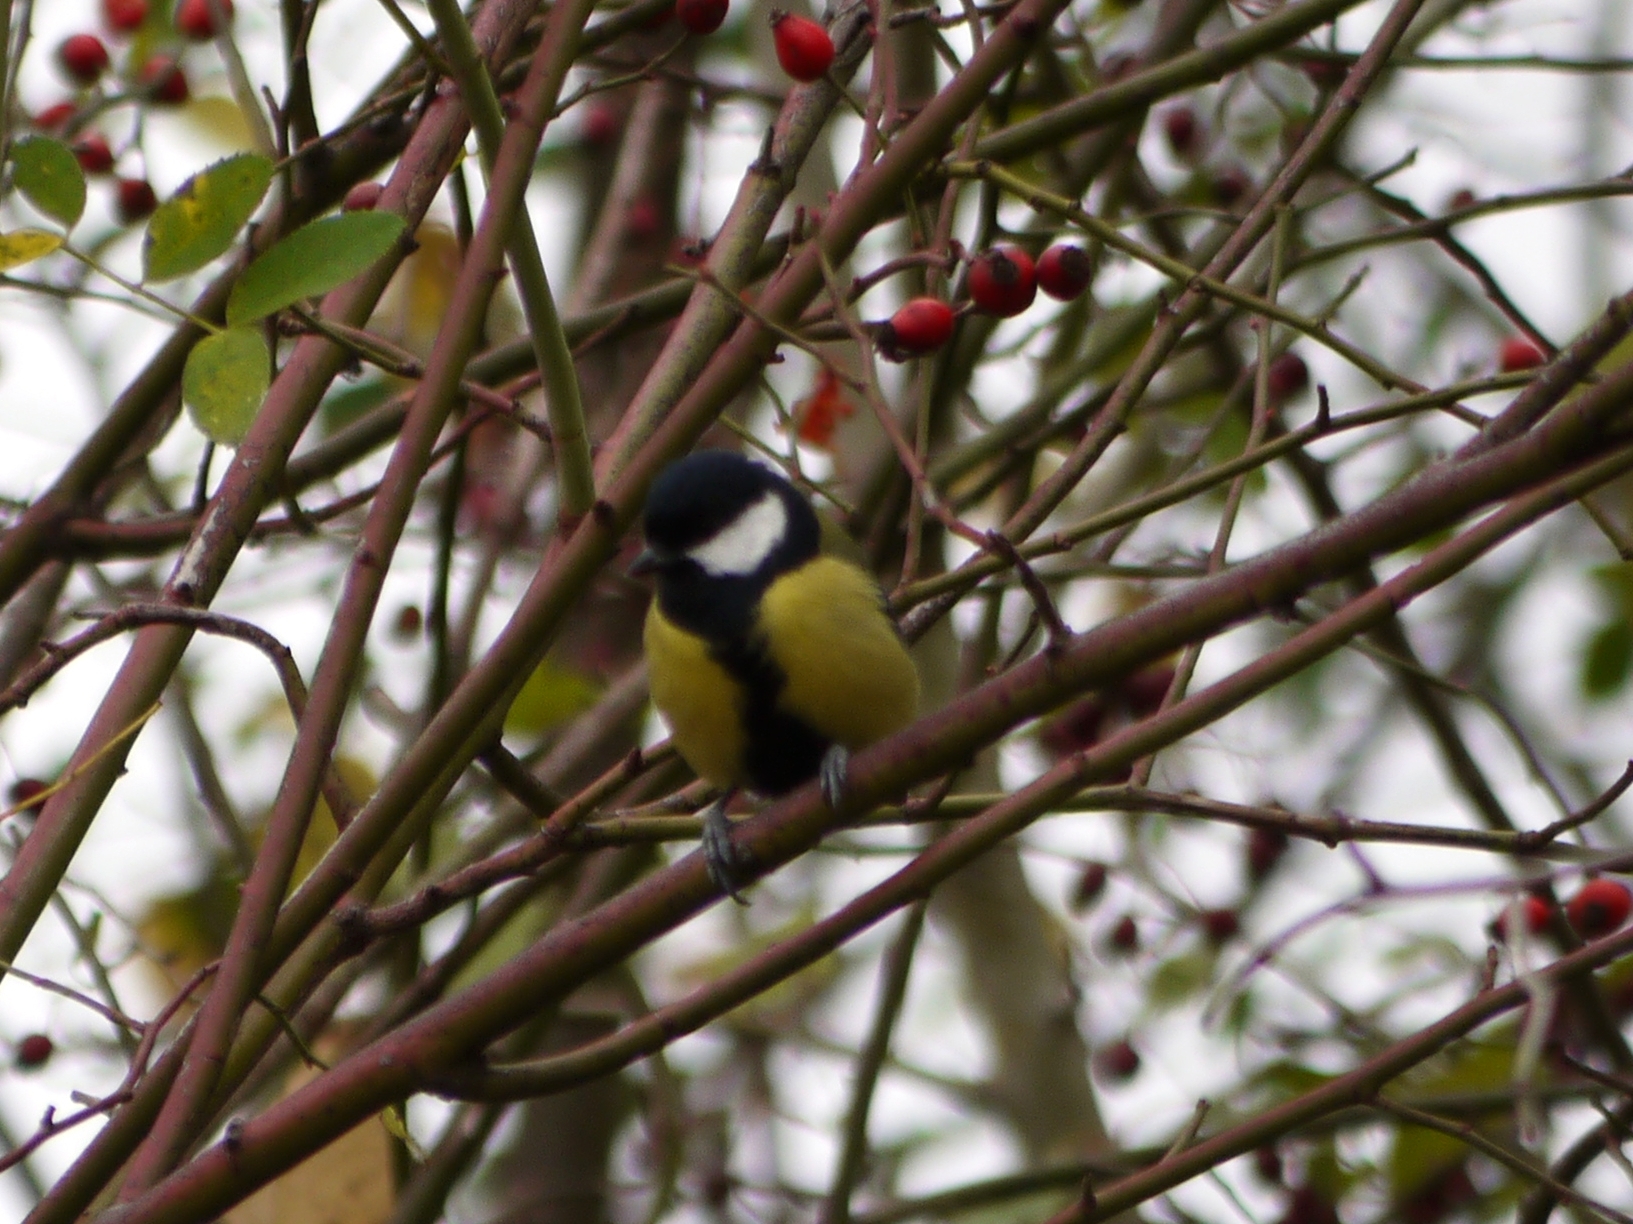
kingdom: Animalia
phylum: Chordata
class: Aves
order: Passeriformes
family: Paridae
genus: Parus
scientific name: Parus major
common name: Great tit
